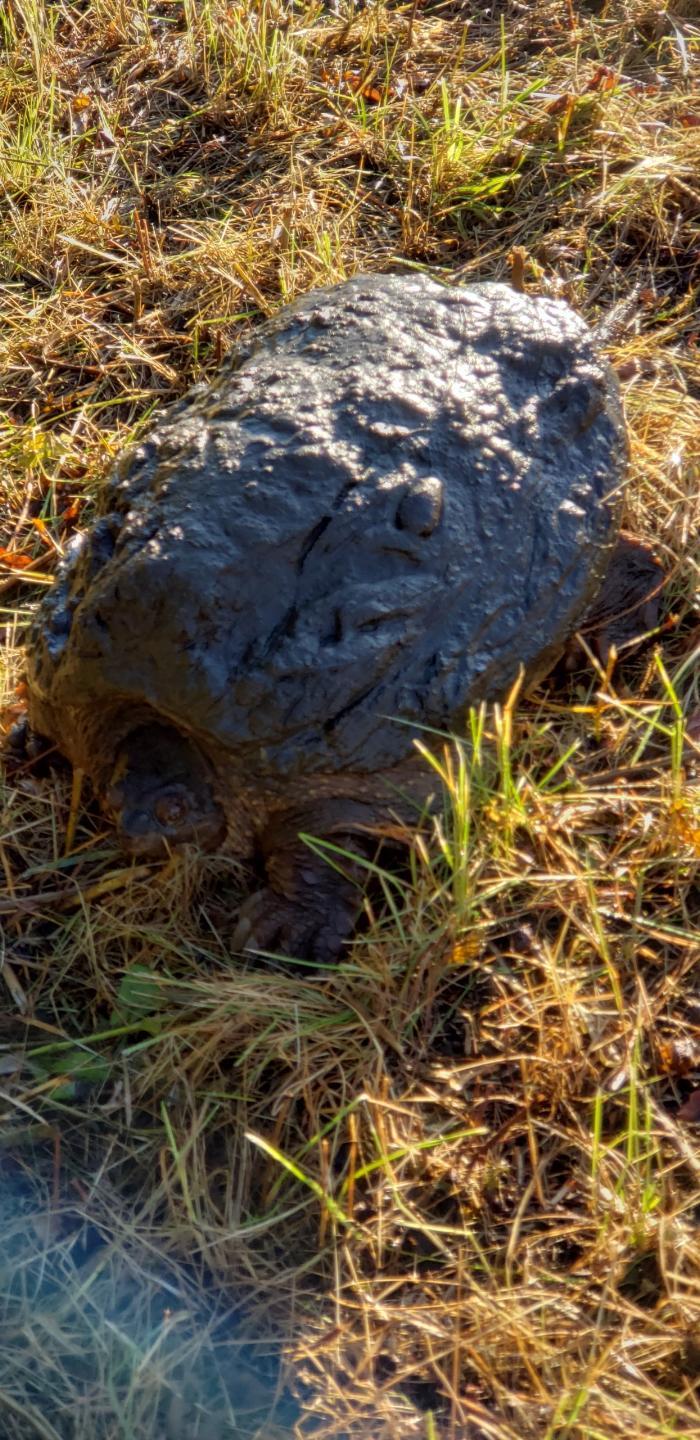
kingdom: Animalia
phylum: Chordata
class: Testudines
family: Chelydridae
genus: Chelydra
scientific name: Chelydra serpentina
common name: Common snapping turtle
